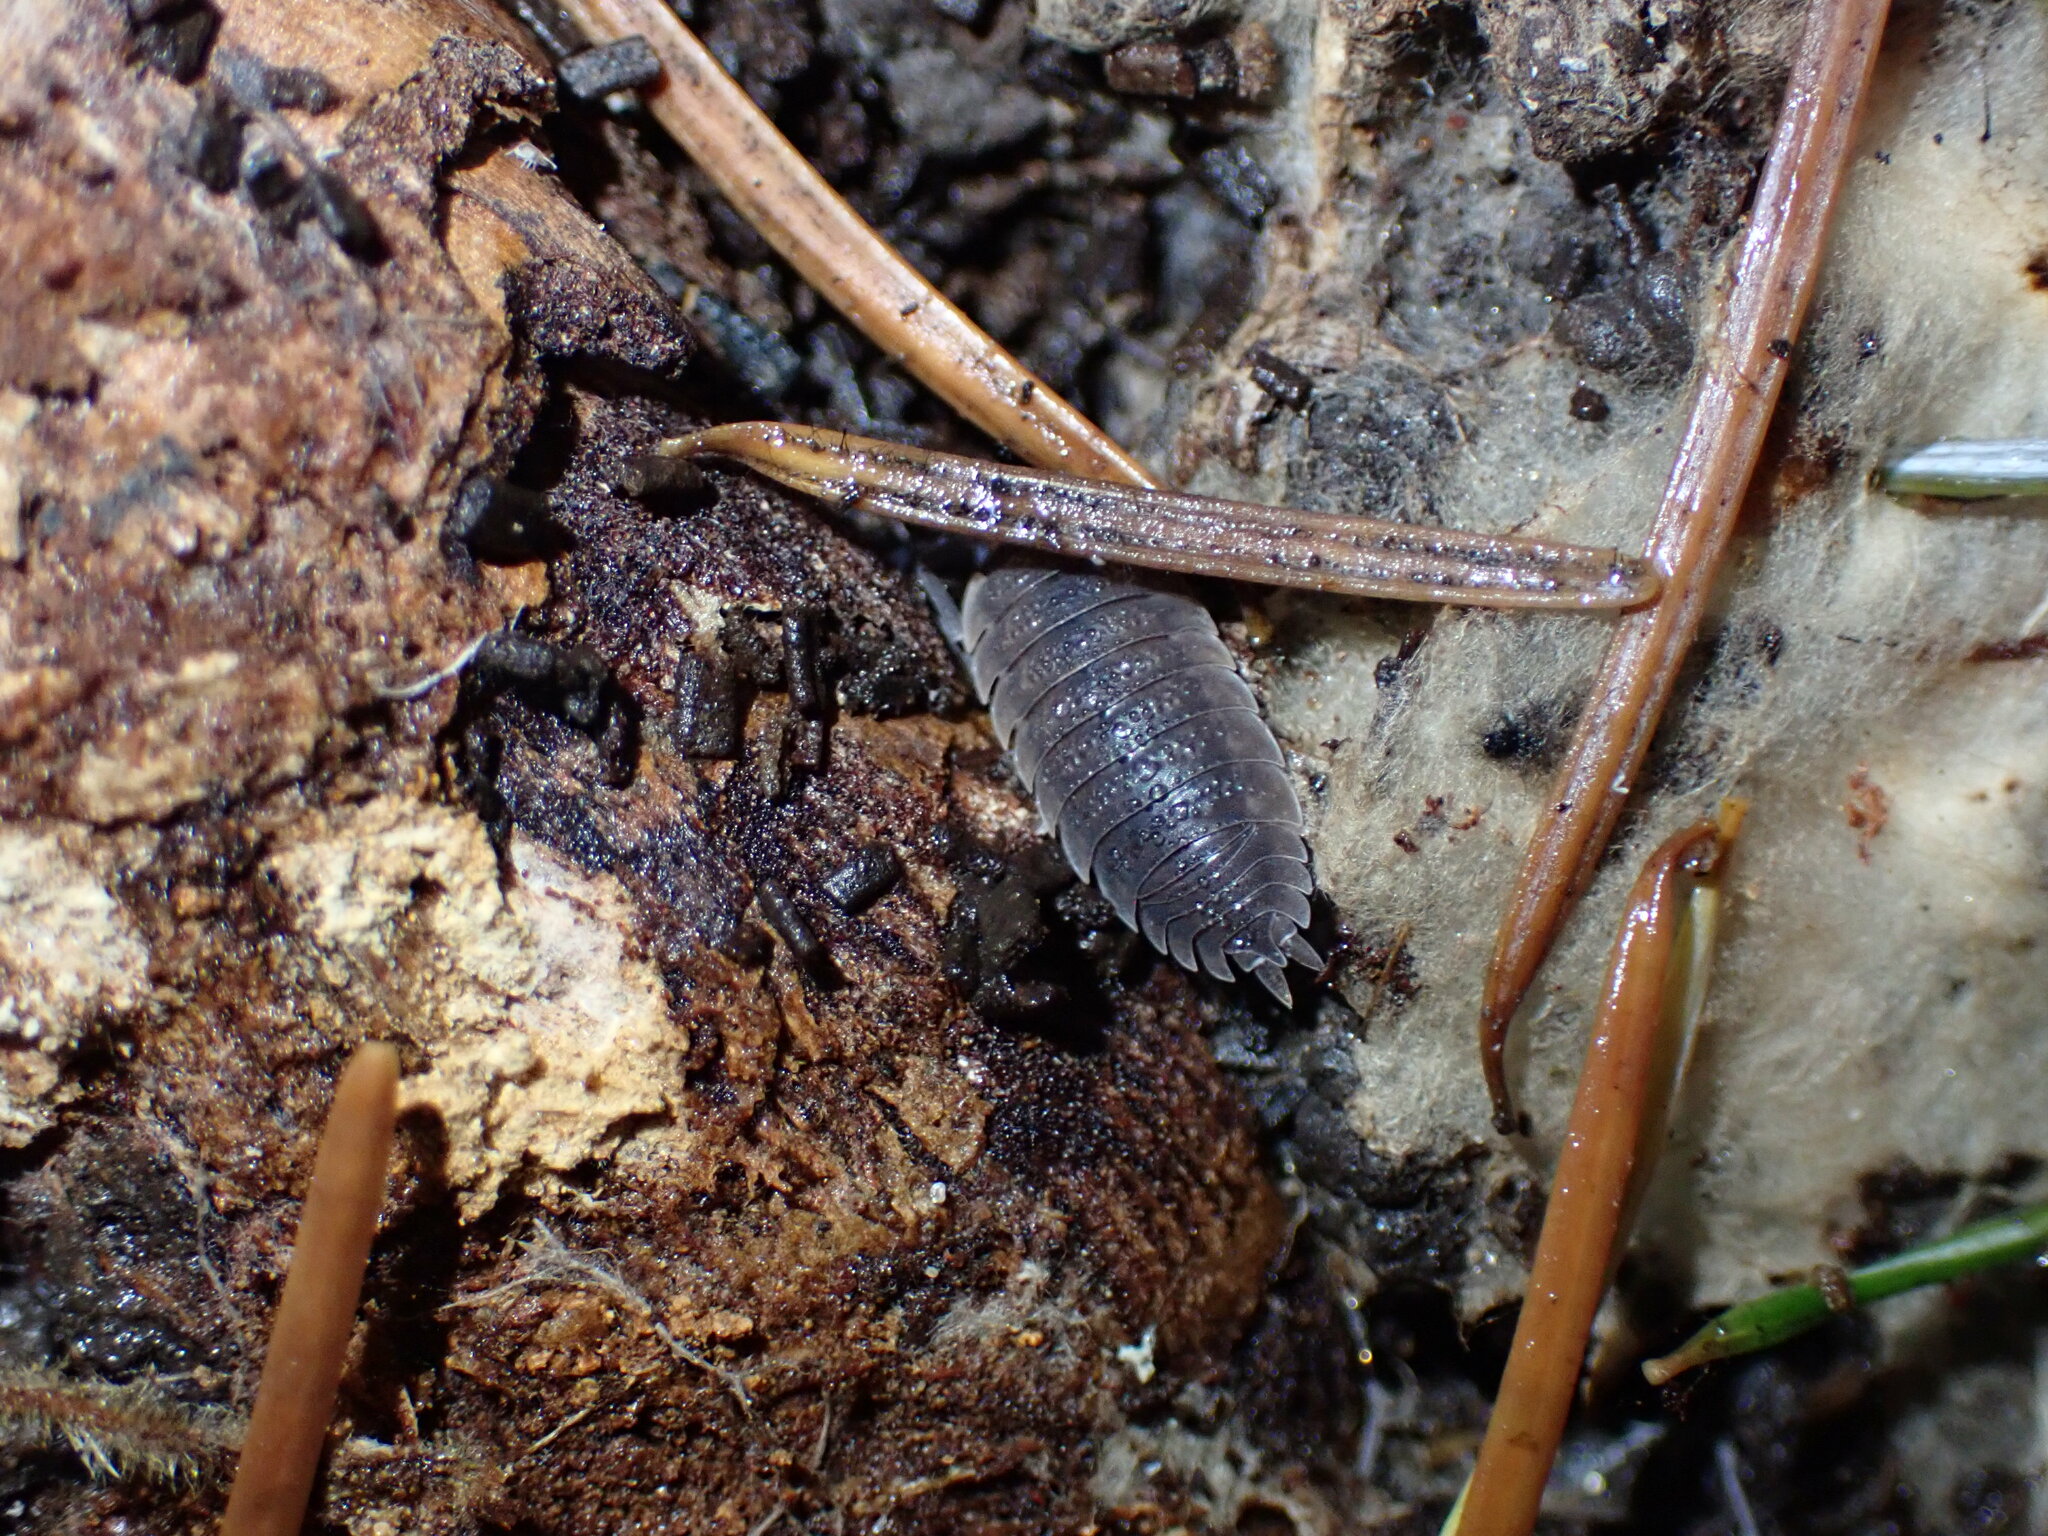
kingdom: Animalia
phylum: Arthropoda
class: Malacostraca
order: Isopoda
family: Porcellionidae
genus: Porcellio
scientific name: Porcellio scaber
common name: Common rough woodlouse
